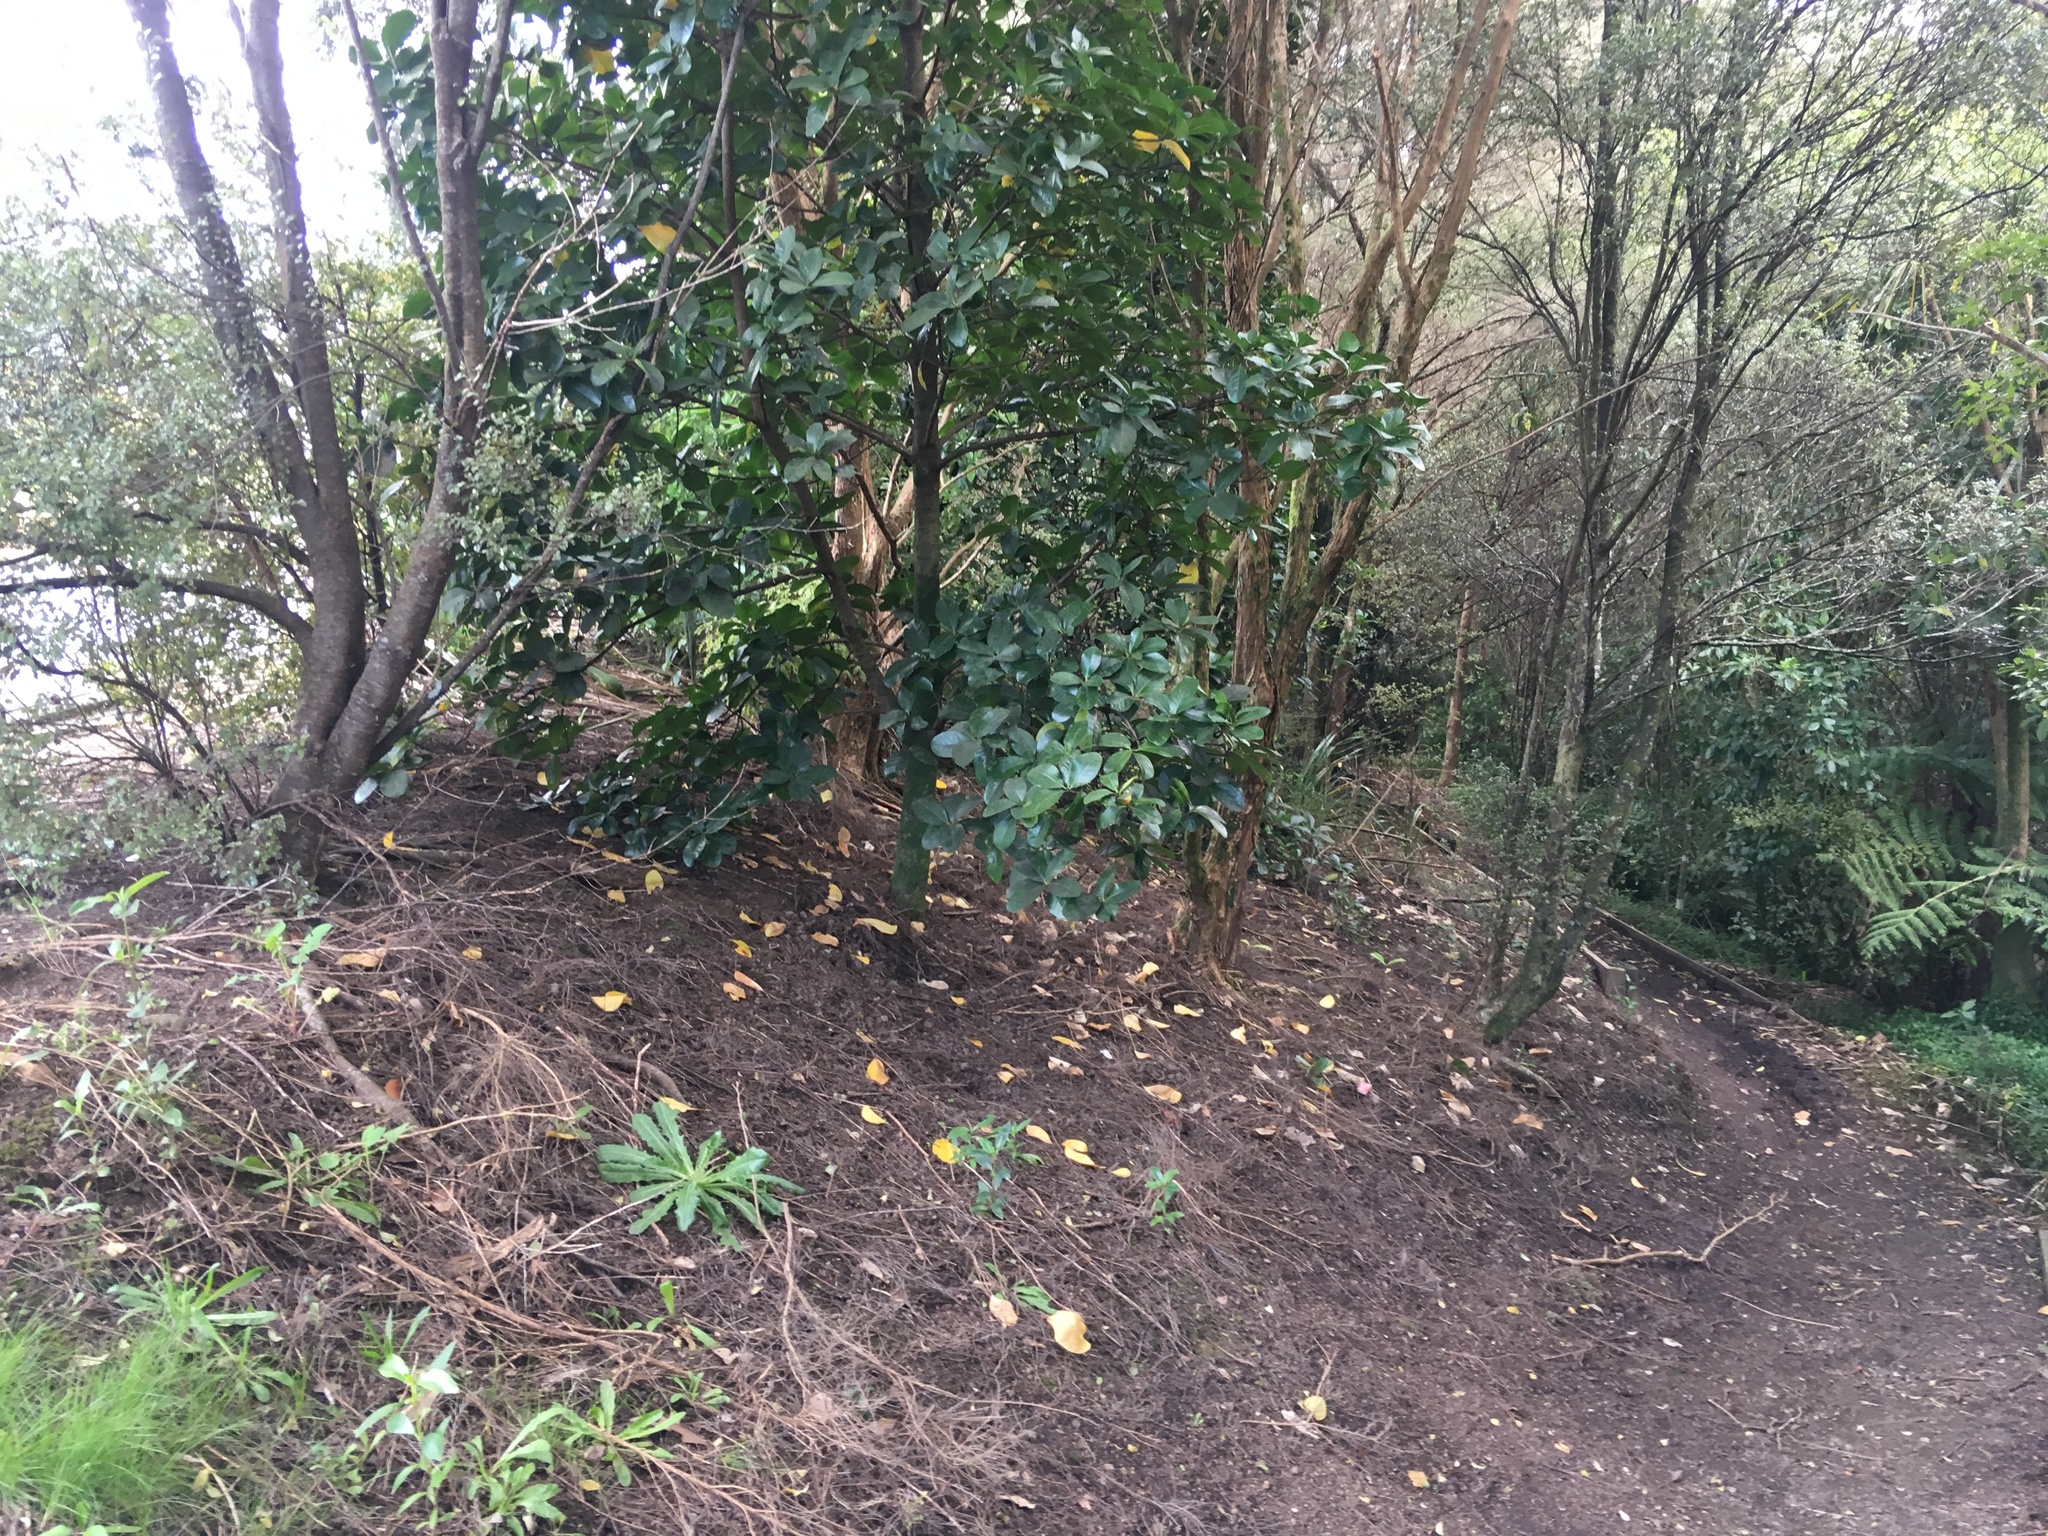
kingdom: Plantae
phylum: Tracheophyta
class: Magnoliopsida
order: Cucurbitales
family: Corynocarpaceae
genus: Corynocarpus
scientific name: Corynocarpus laevigatus
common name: New zealand laurel
